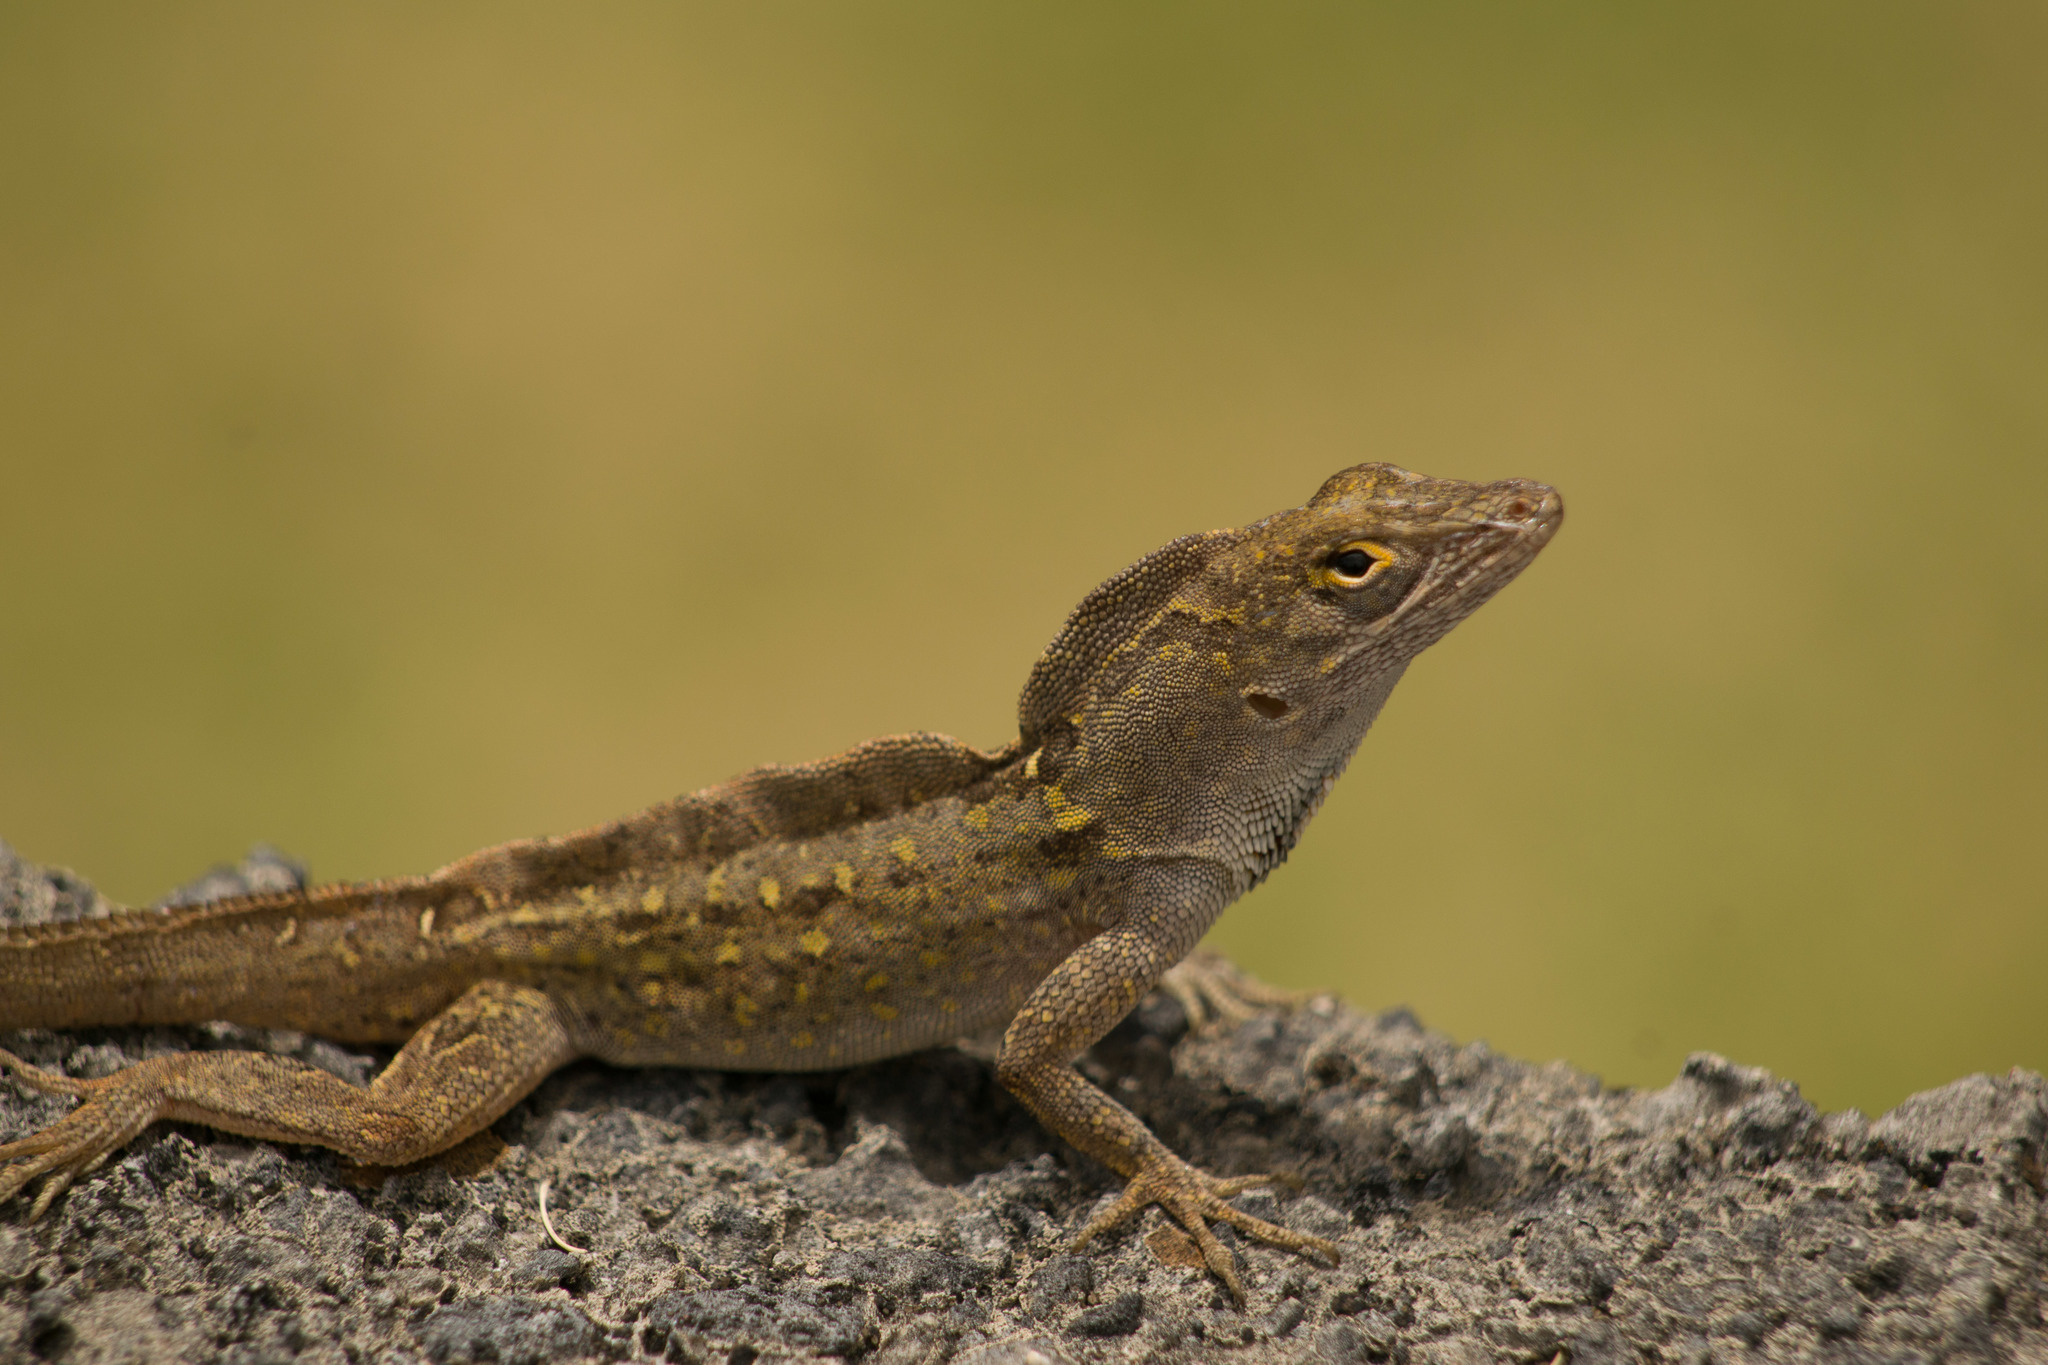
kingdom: Animalia
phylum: Chordata
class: Squamata
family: Dactyloidae
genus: Anolis
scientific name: Anolis sagrei
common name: Brown anole
